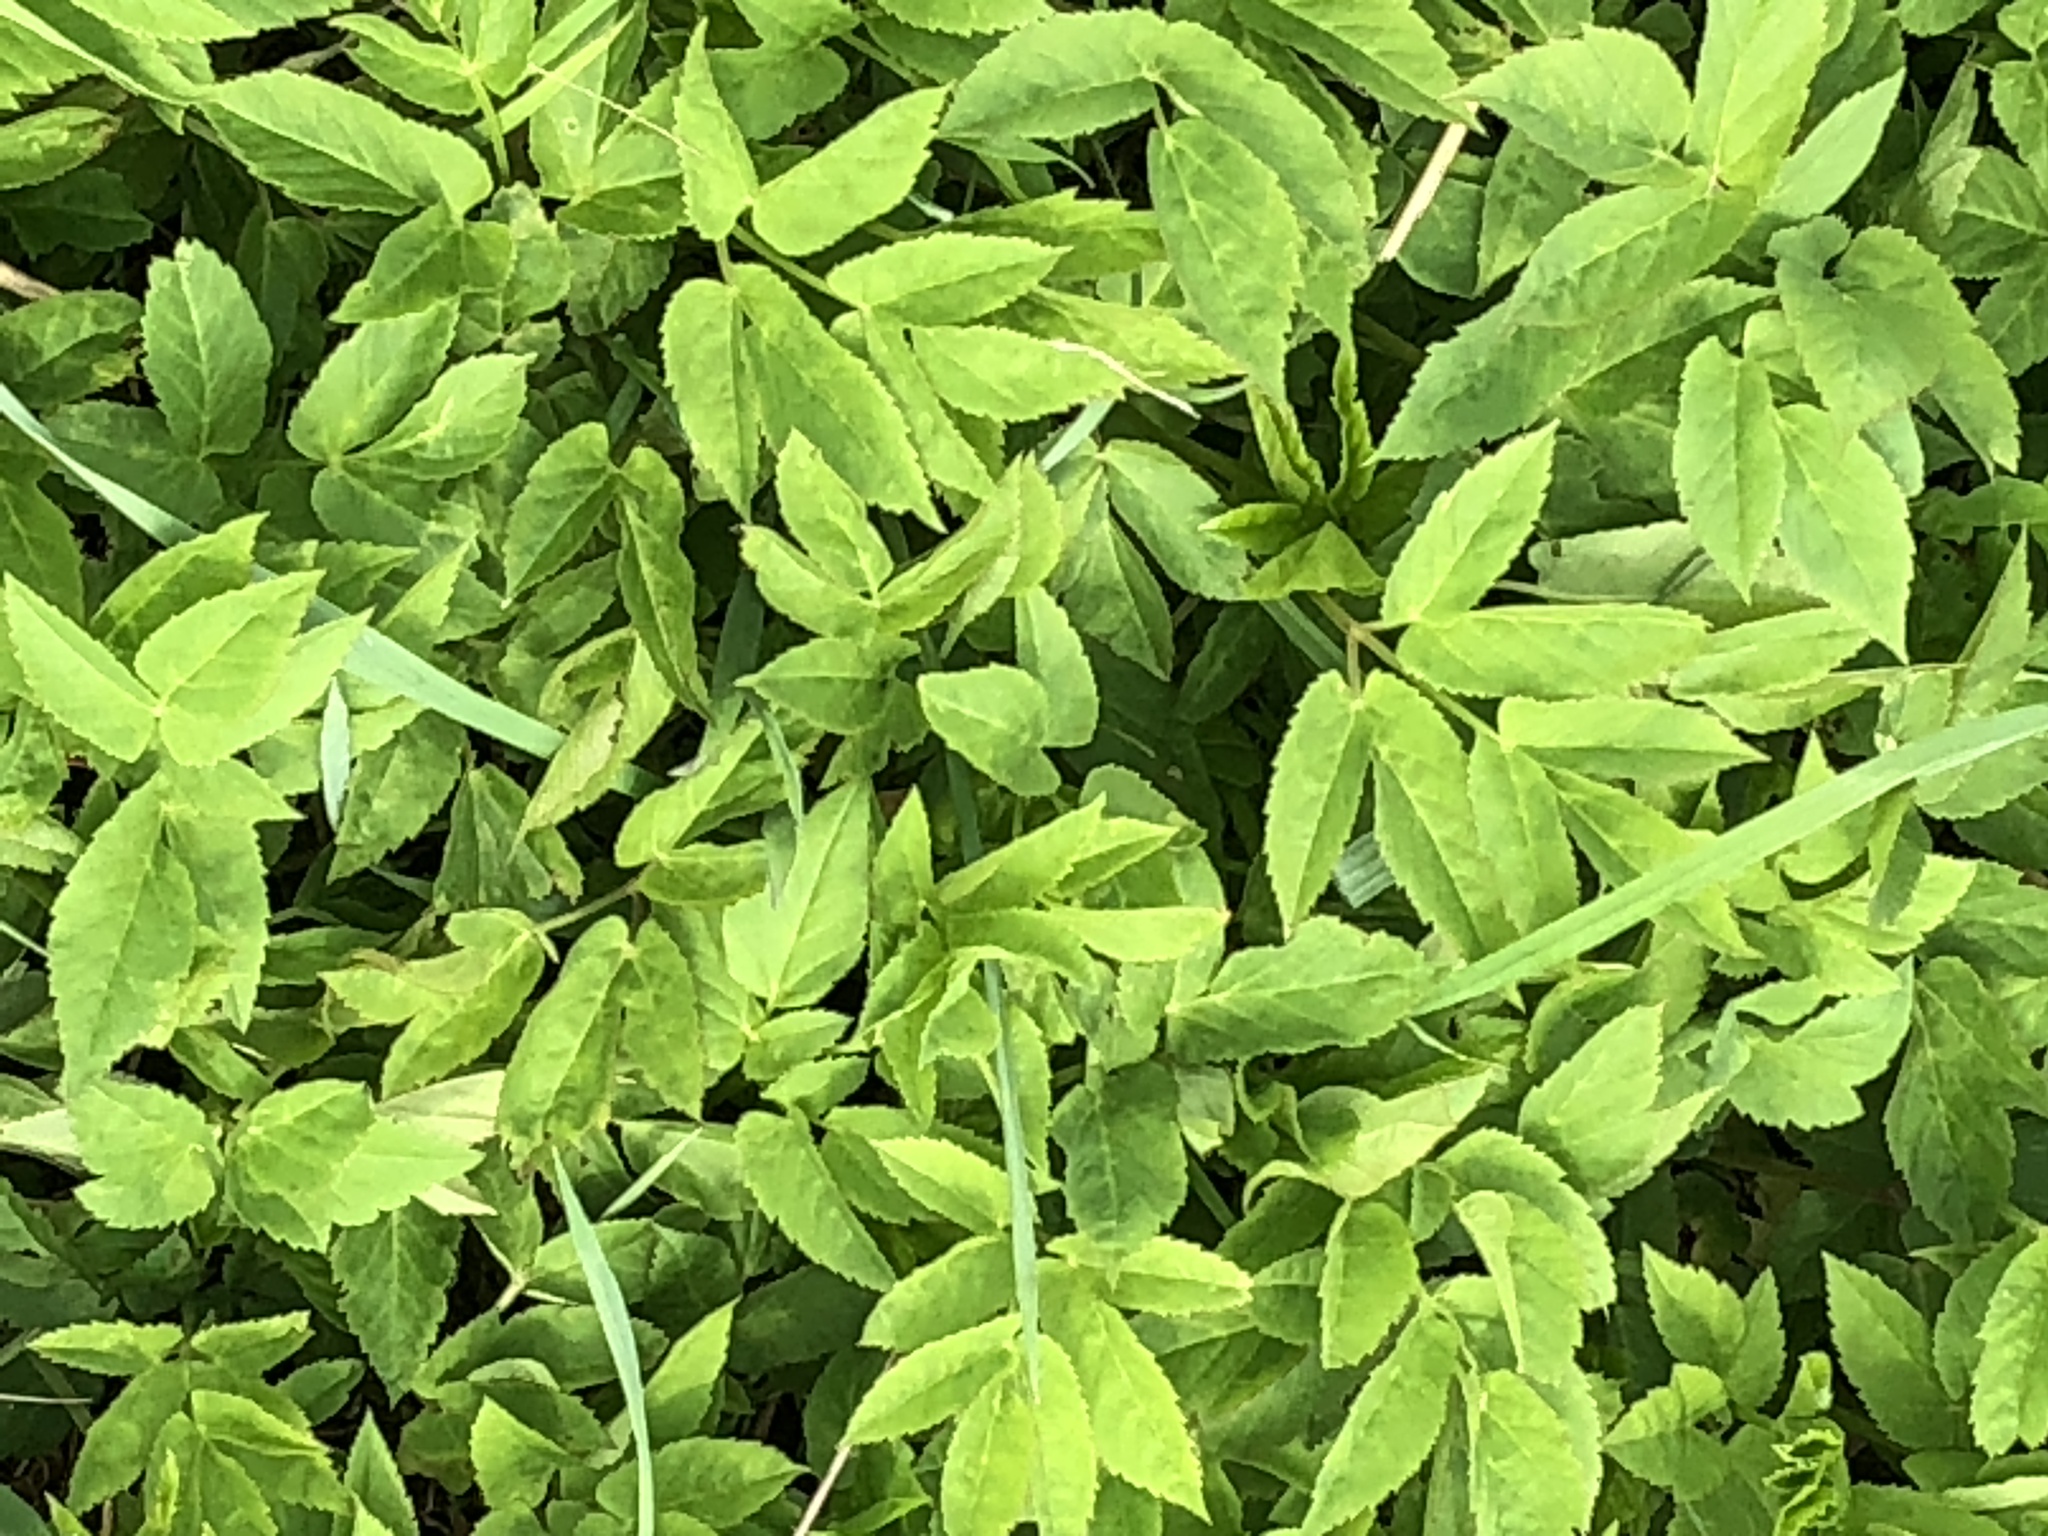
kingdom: Plantae
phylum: Tracheophyta
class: Magnoliopsida
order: Apiales
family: Apiaceae
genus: Aegopodium
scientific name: Aegopodium podagraria
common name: Ground-elder
